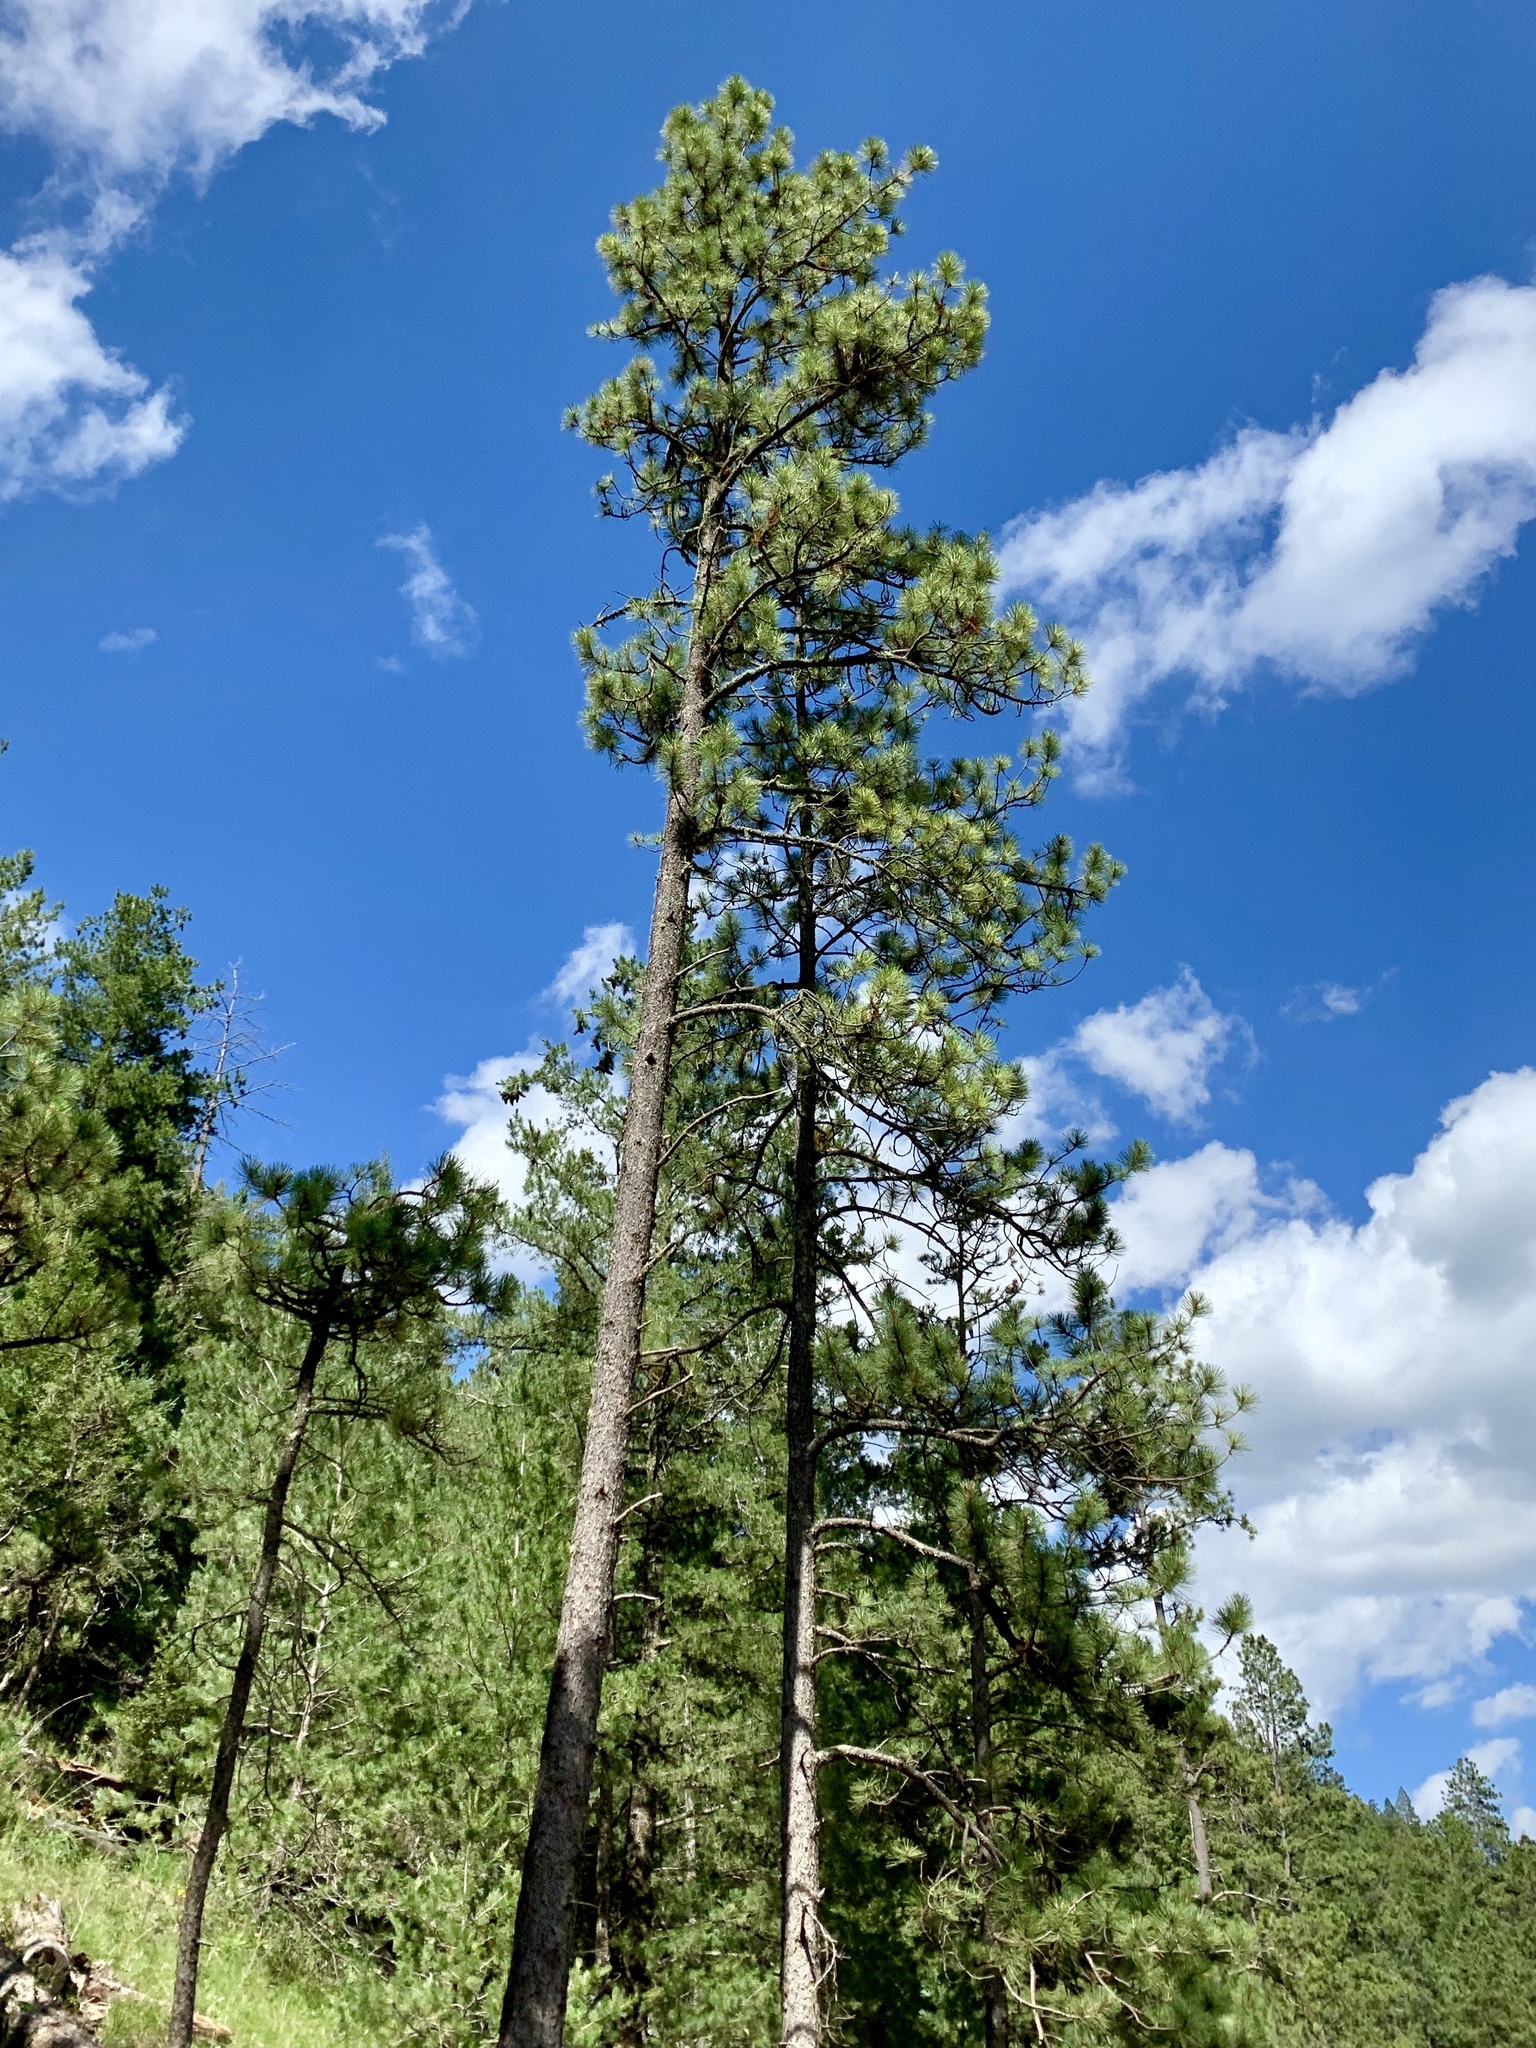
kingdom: Plantae
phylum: Tracheophyta
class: Pinopsida
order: Pinales
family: Pinaceae
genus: Pinus
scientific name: Pinus ponderosa
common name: Western yellow-pine
